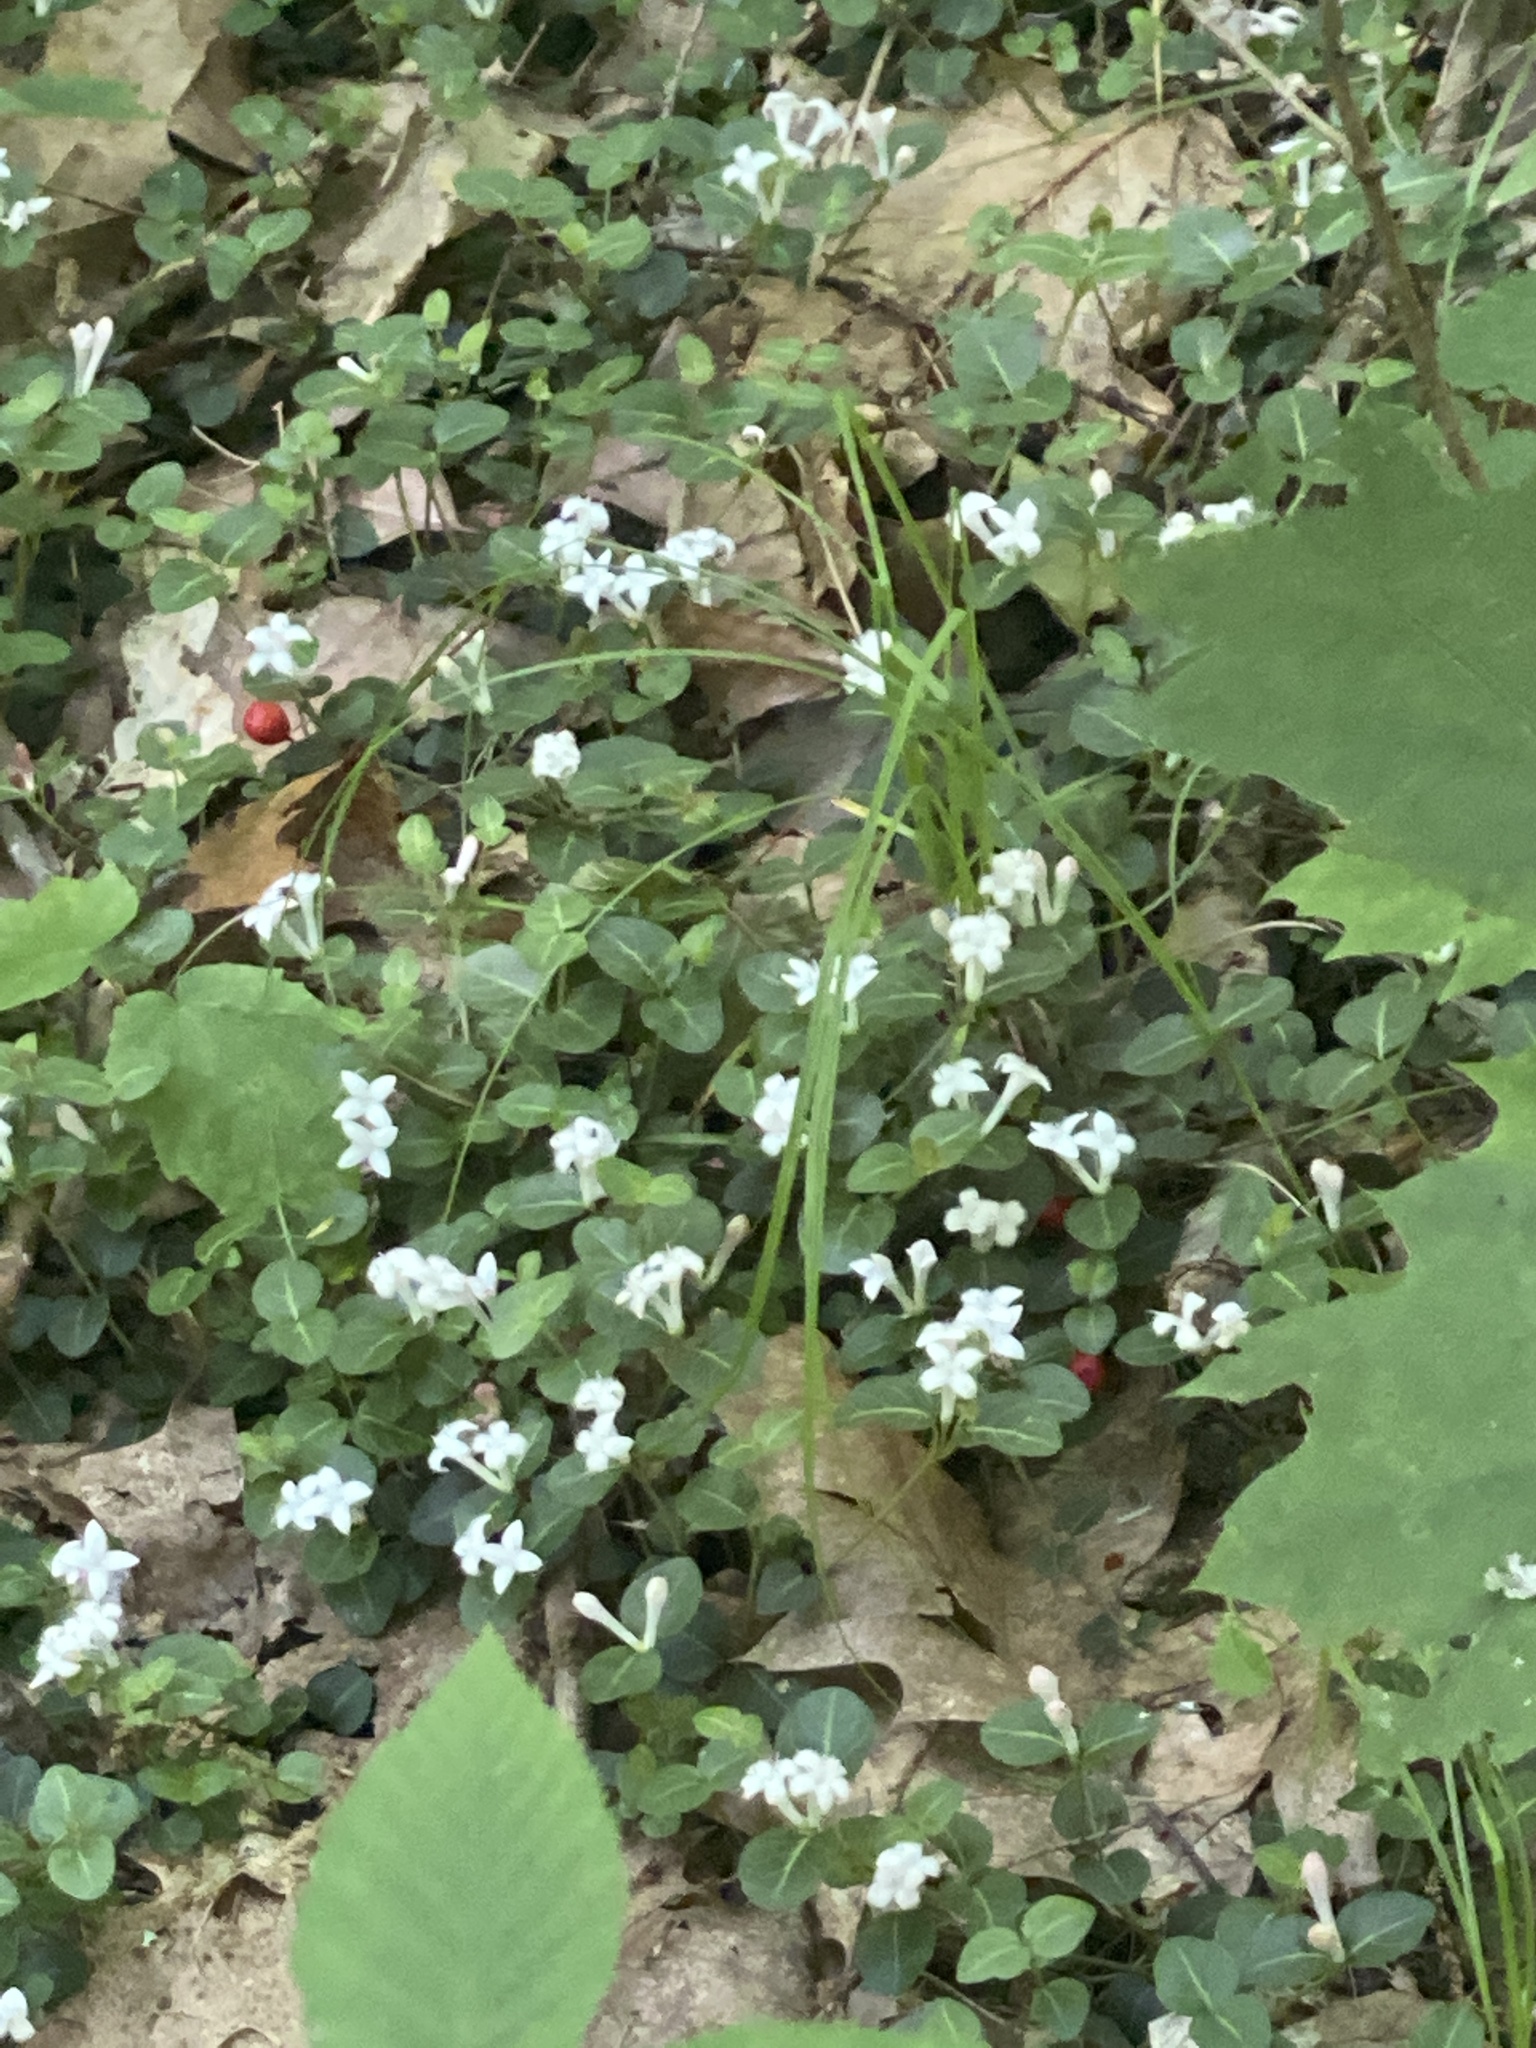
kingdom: Plantae
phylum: Tracheophyta
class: Magnoliopsida
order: Gentianales
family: Rubiaceae
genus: Mitchella
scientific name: Mitchella repens
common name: Partridge-berry
